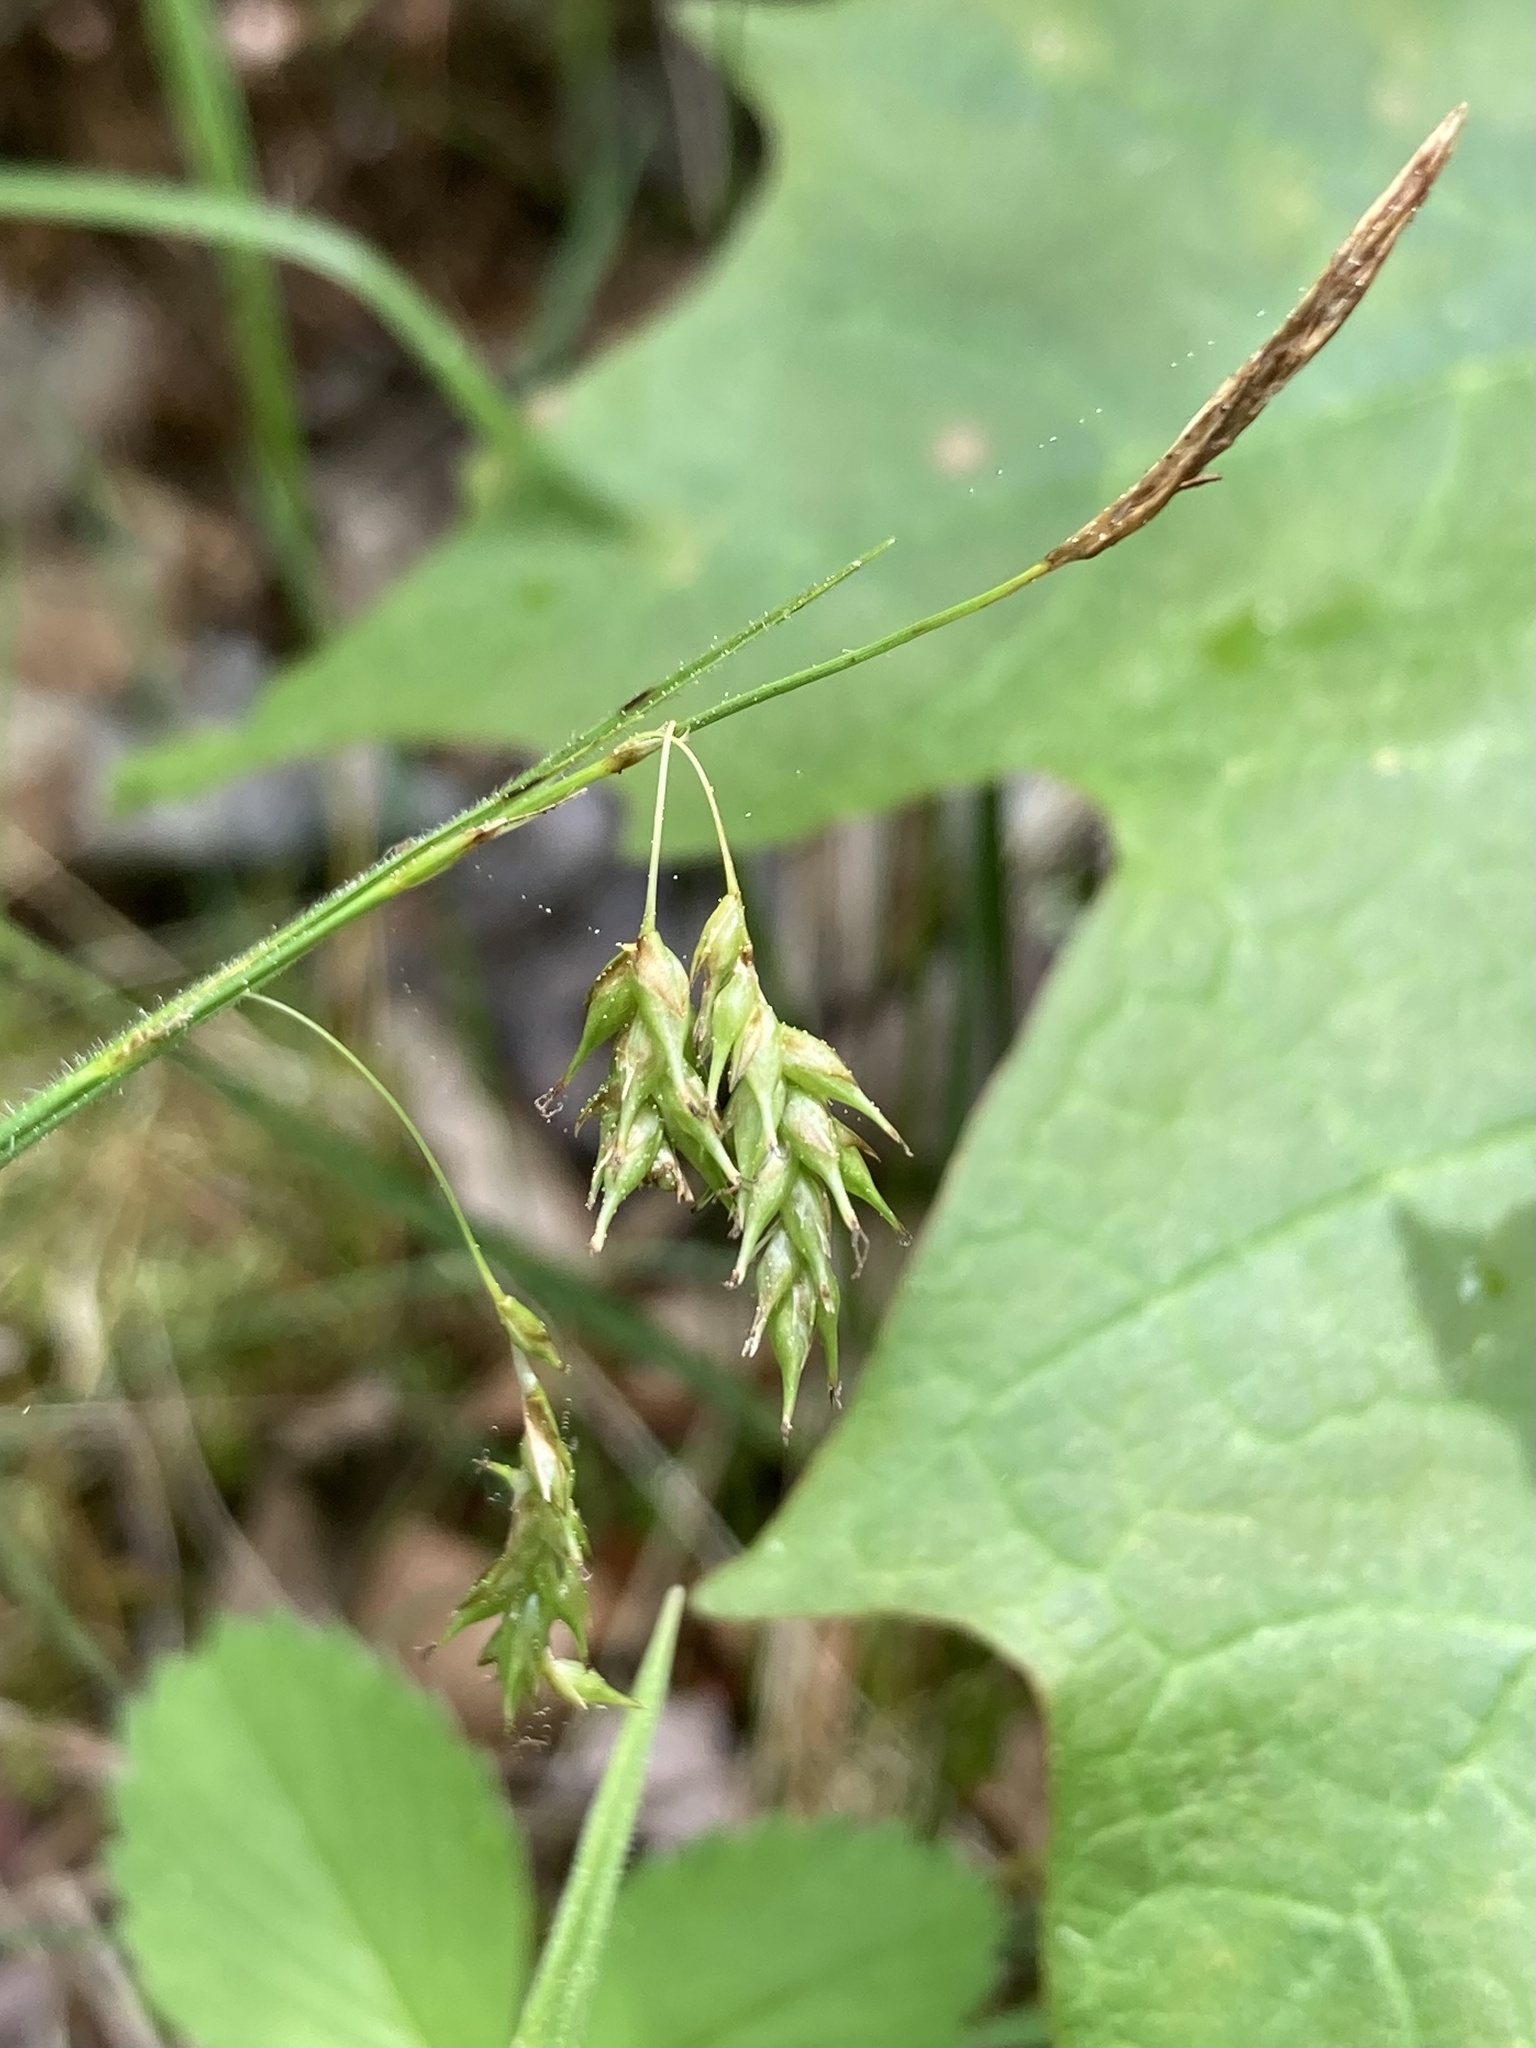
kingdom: Plantae
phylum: Tracheophyta
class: Liliopsida
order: Poales
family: Cyperaceae
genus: Carex
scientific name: Carex castanea
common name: Chestnut sedge
